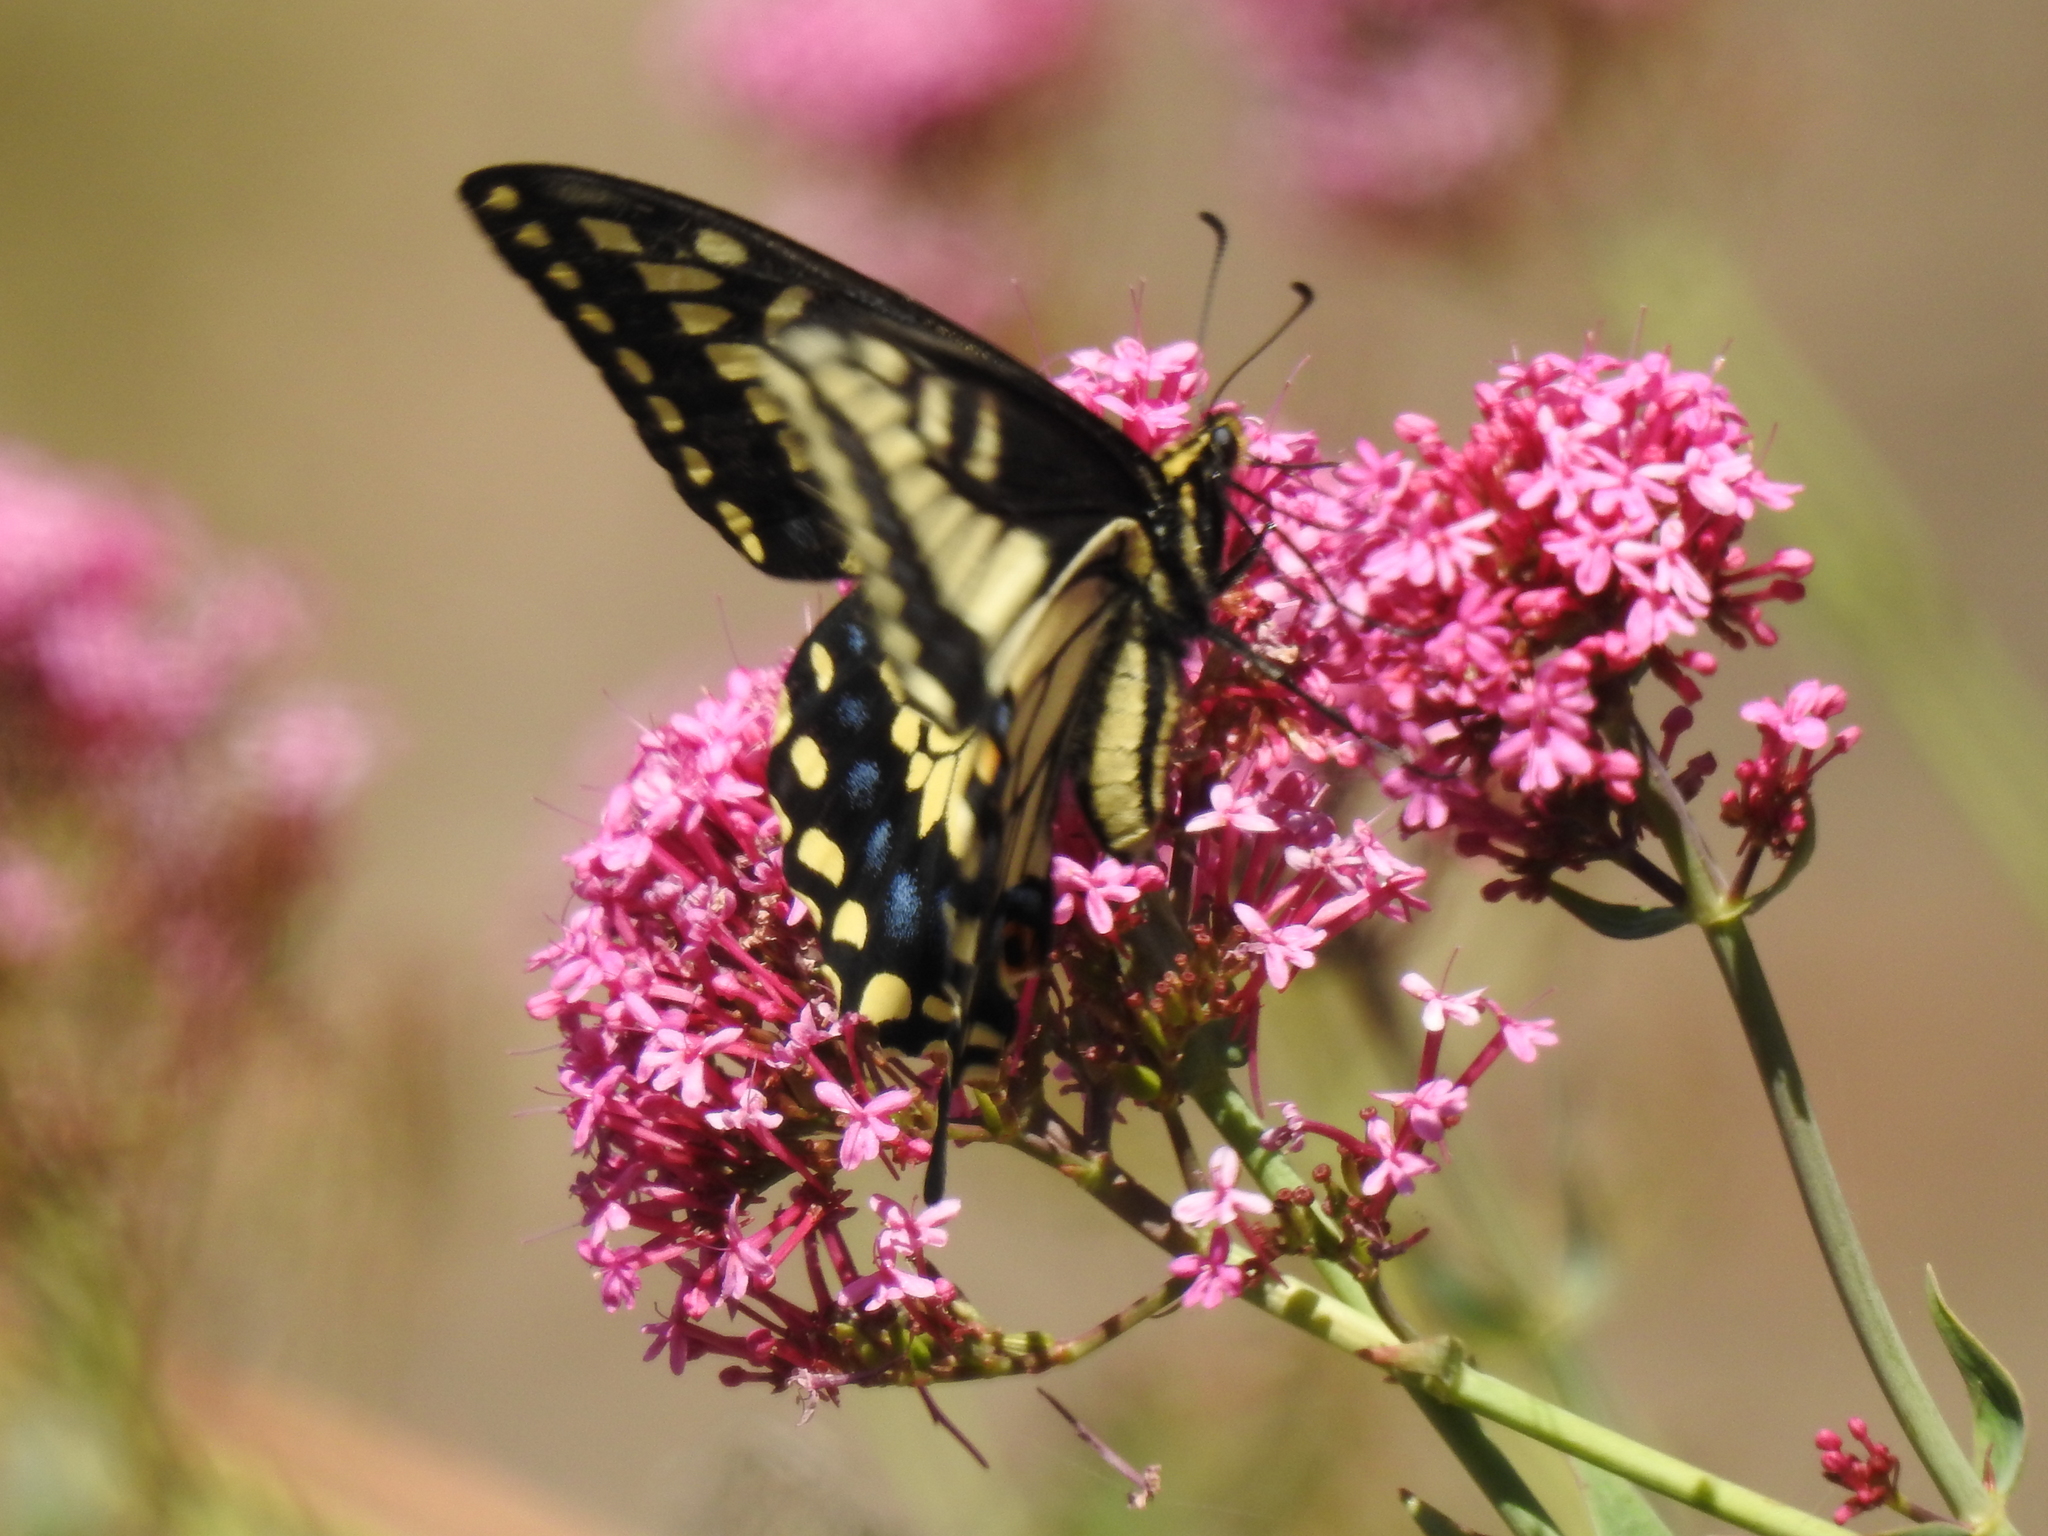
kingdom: Animalia
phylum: Arthropoda
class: Insecta
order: Lepidoptera
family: Papilionidae
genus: Papilio
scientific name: Papilio zelicaon
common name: Anise swallowtail
